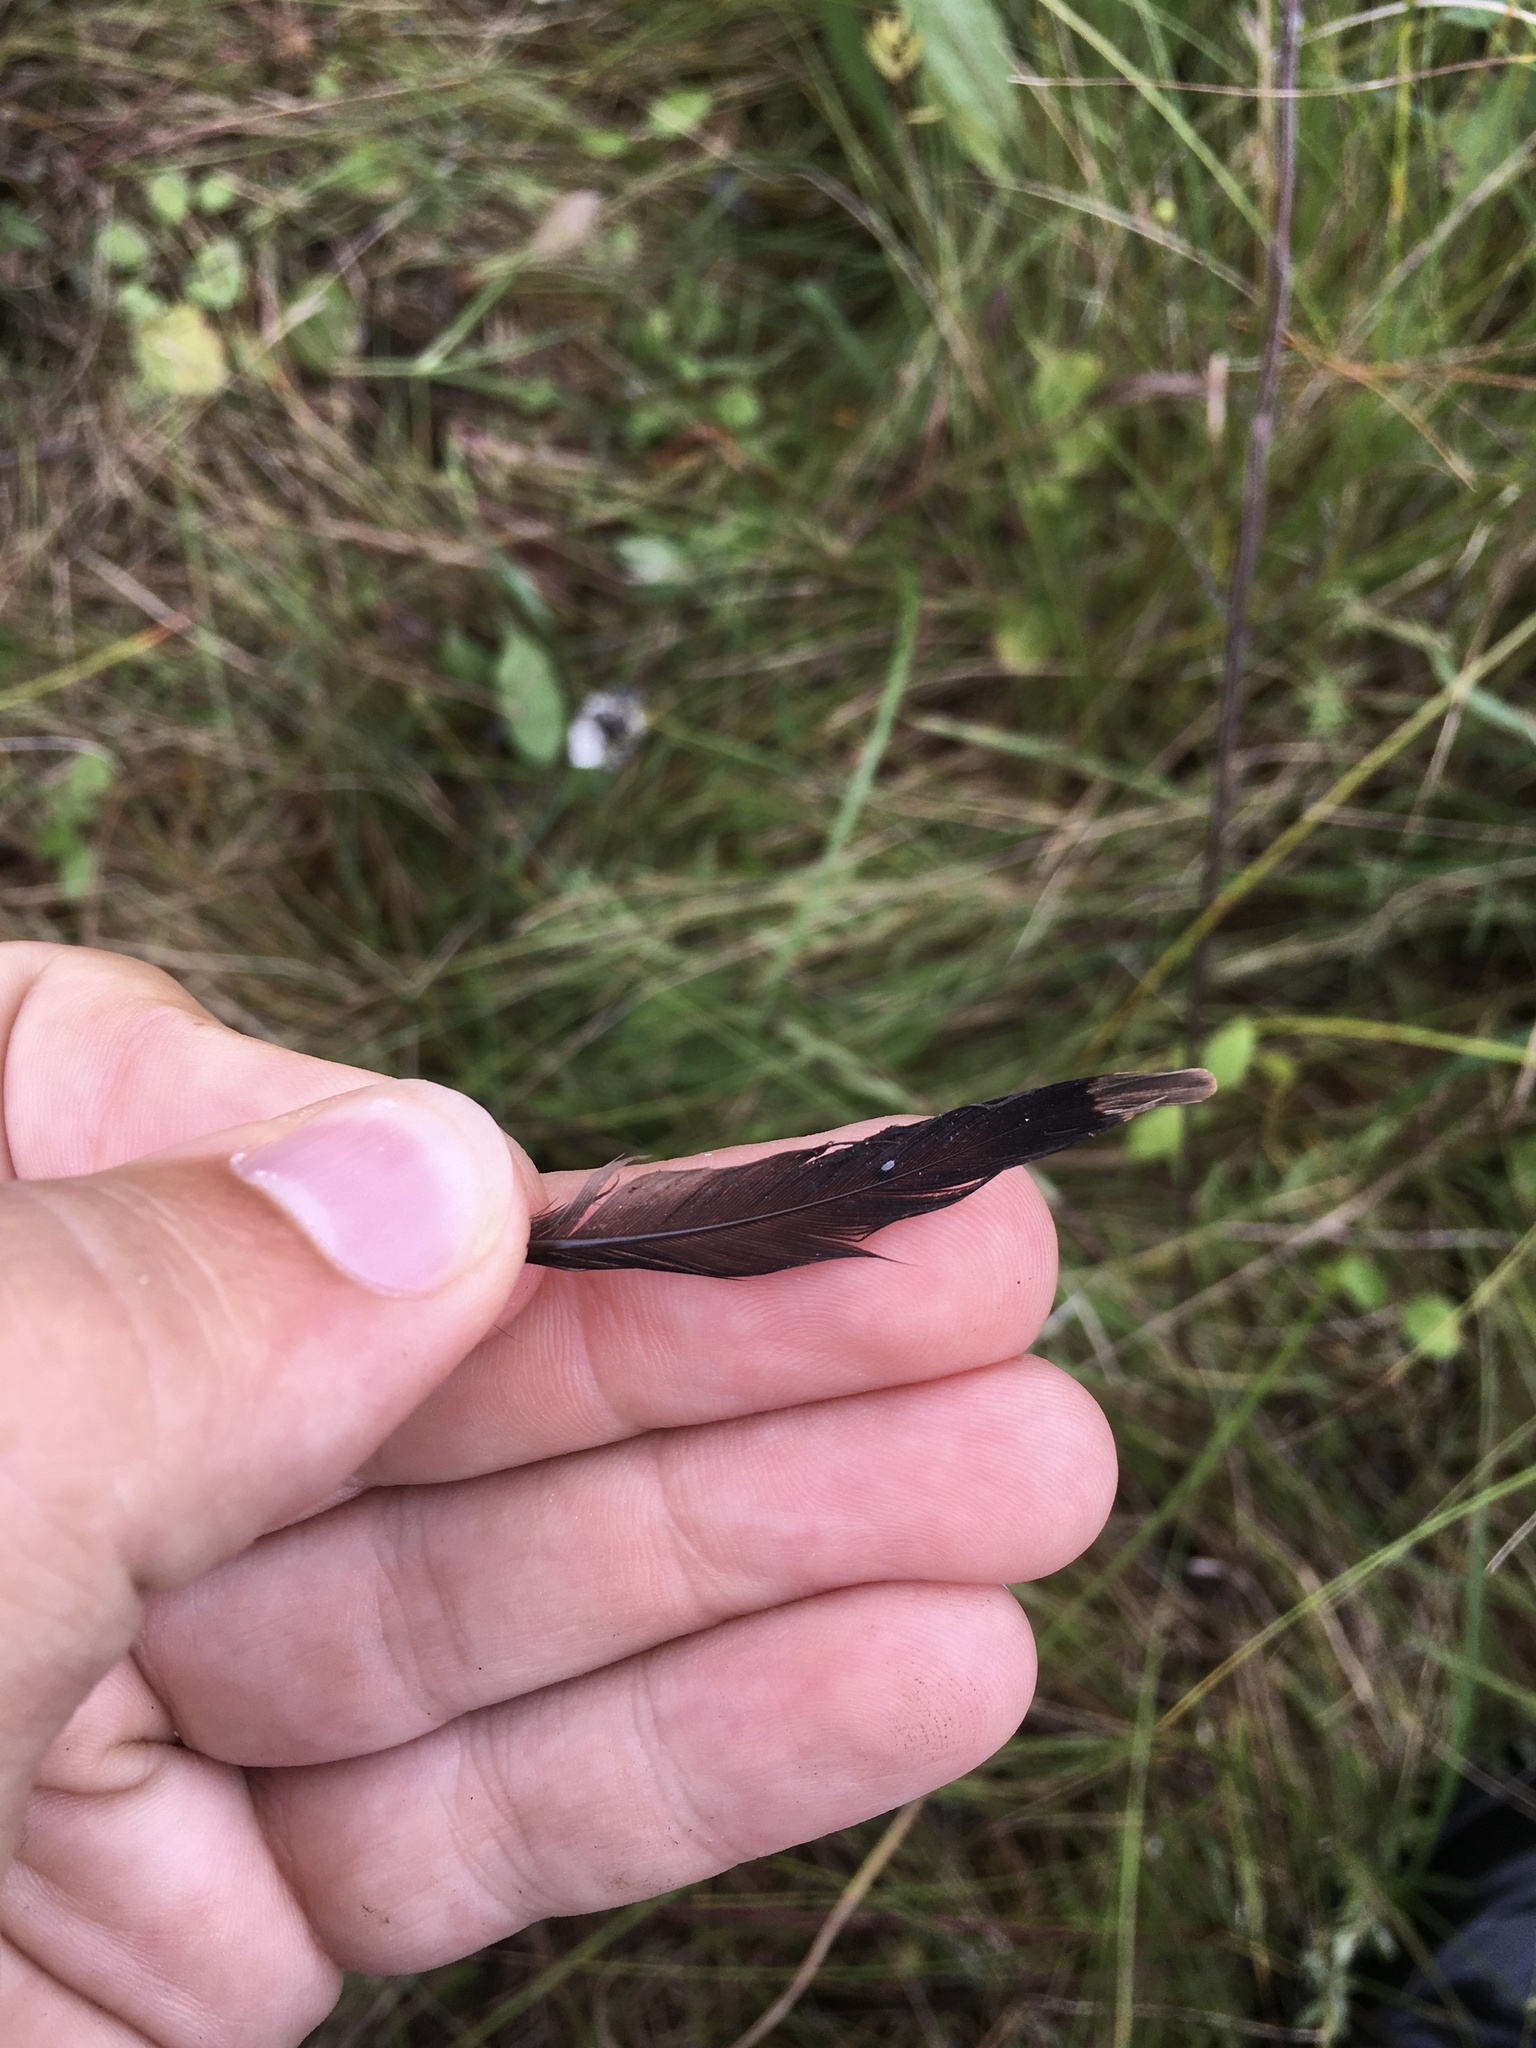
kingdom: Animalia
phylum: Chordata
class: Aves
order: Charadriiformes
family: Scolopacidae
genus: Scolopax
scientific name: Scolopax minor
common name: American woodcock
